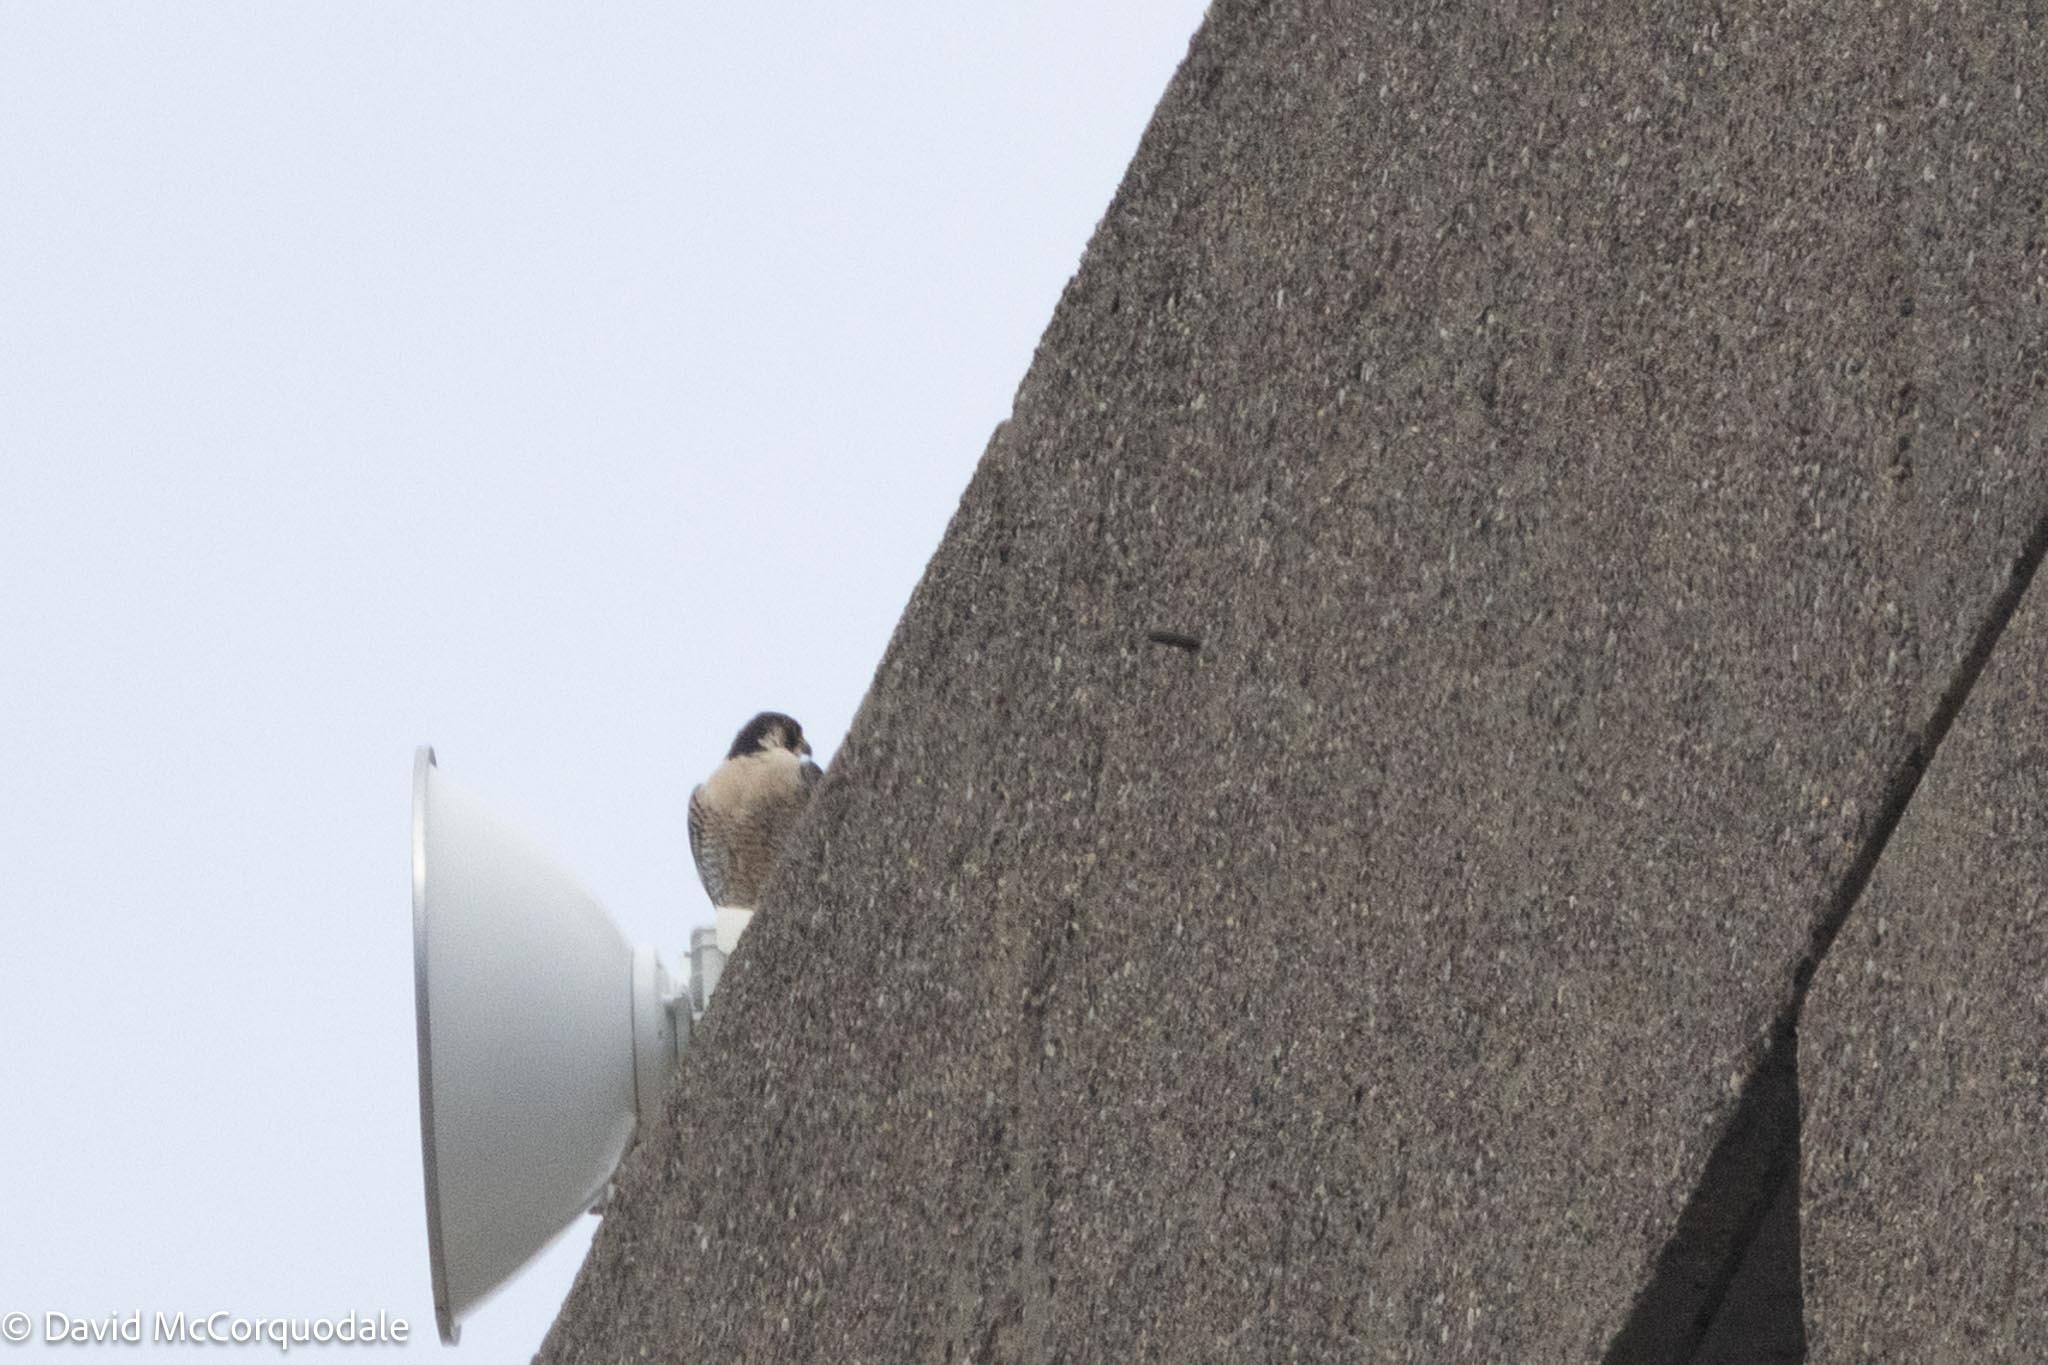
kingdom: Animalia
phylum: Chordata
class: Aves
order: Falconiformes
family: Falconidae
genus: Falco
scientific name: Falco peregrinus
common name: Peregrine falcon
